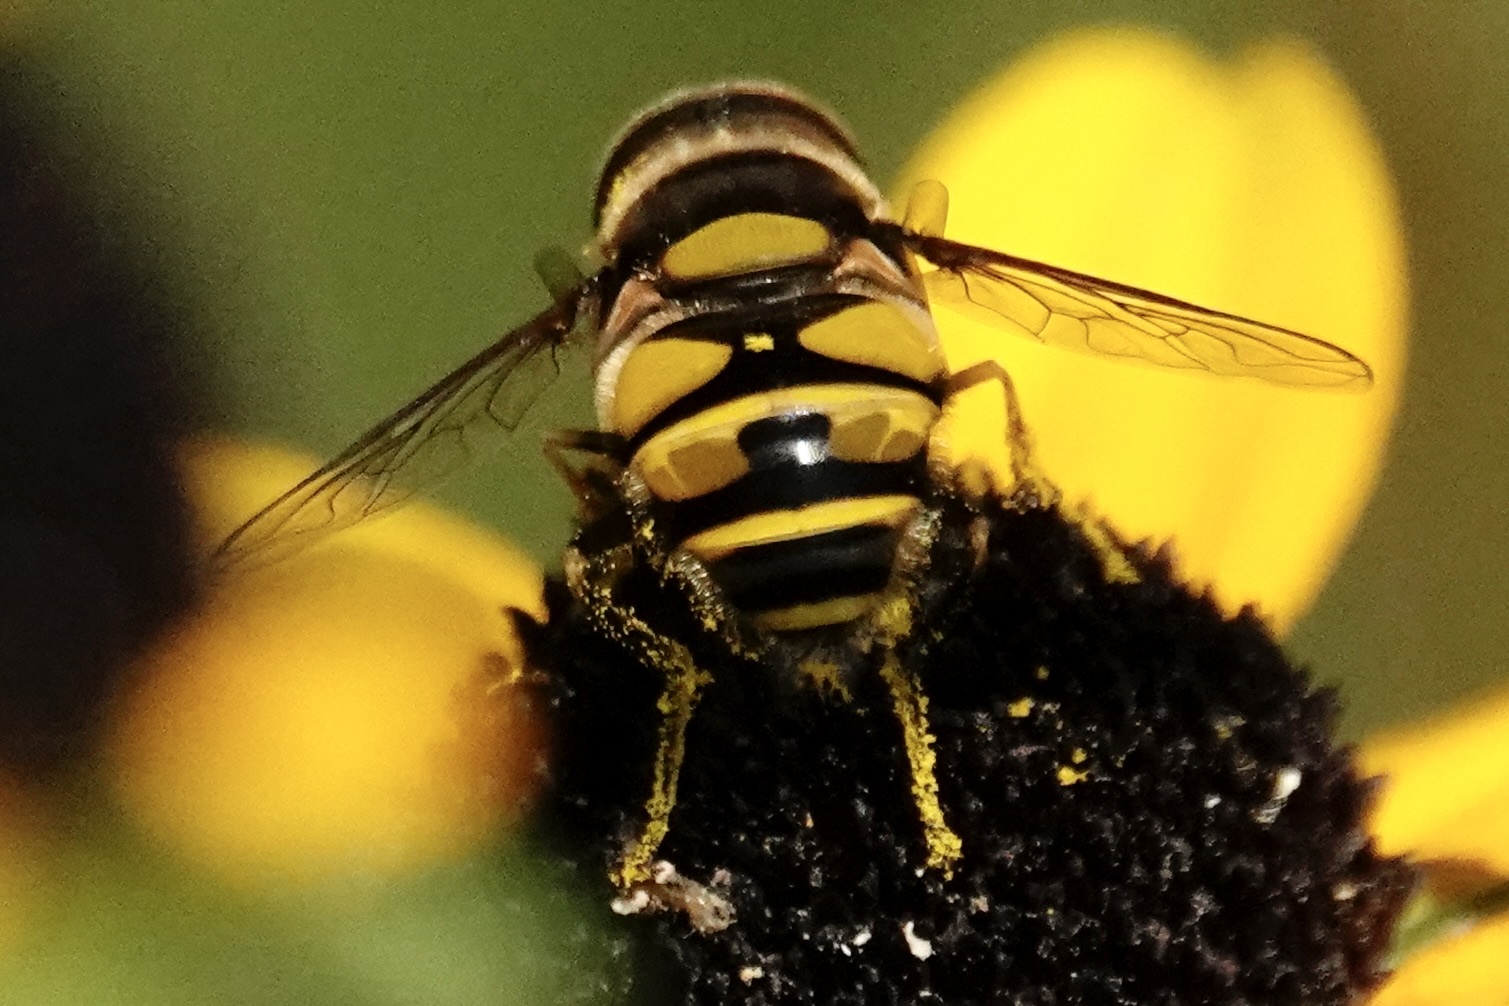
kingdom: Animalia
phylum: Arthropoda
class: Insecta
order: Diptera
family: Syrphidae
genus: Eristalis
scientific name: Eristalis transversa
